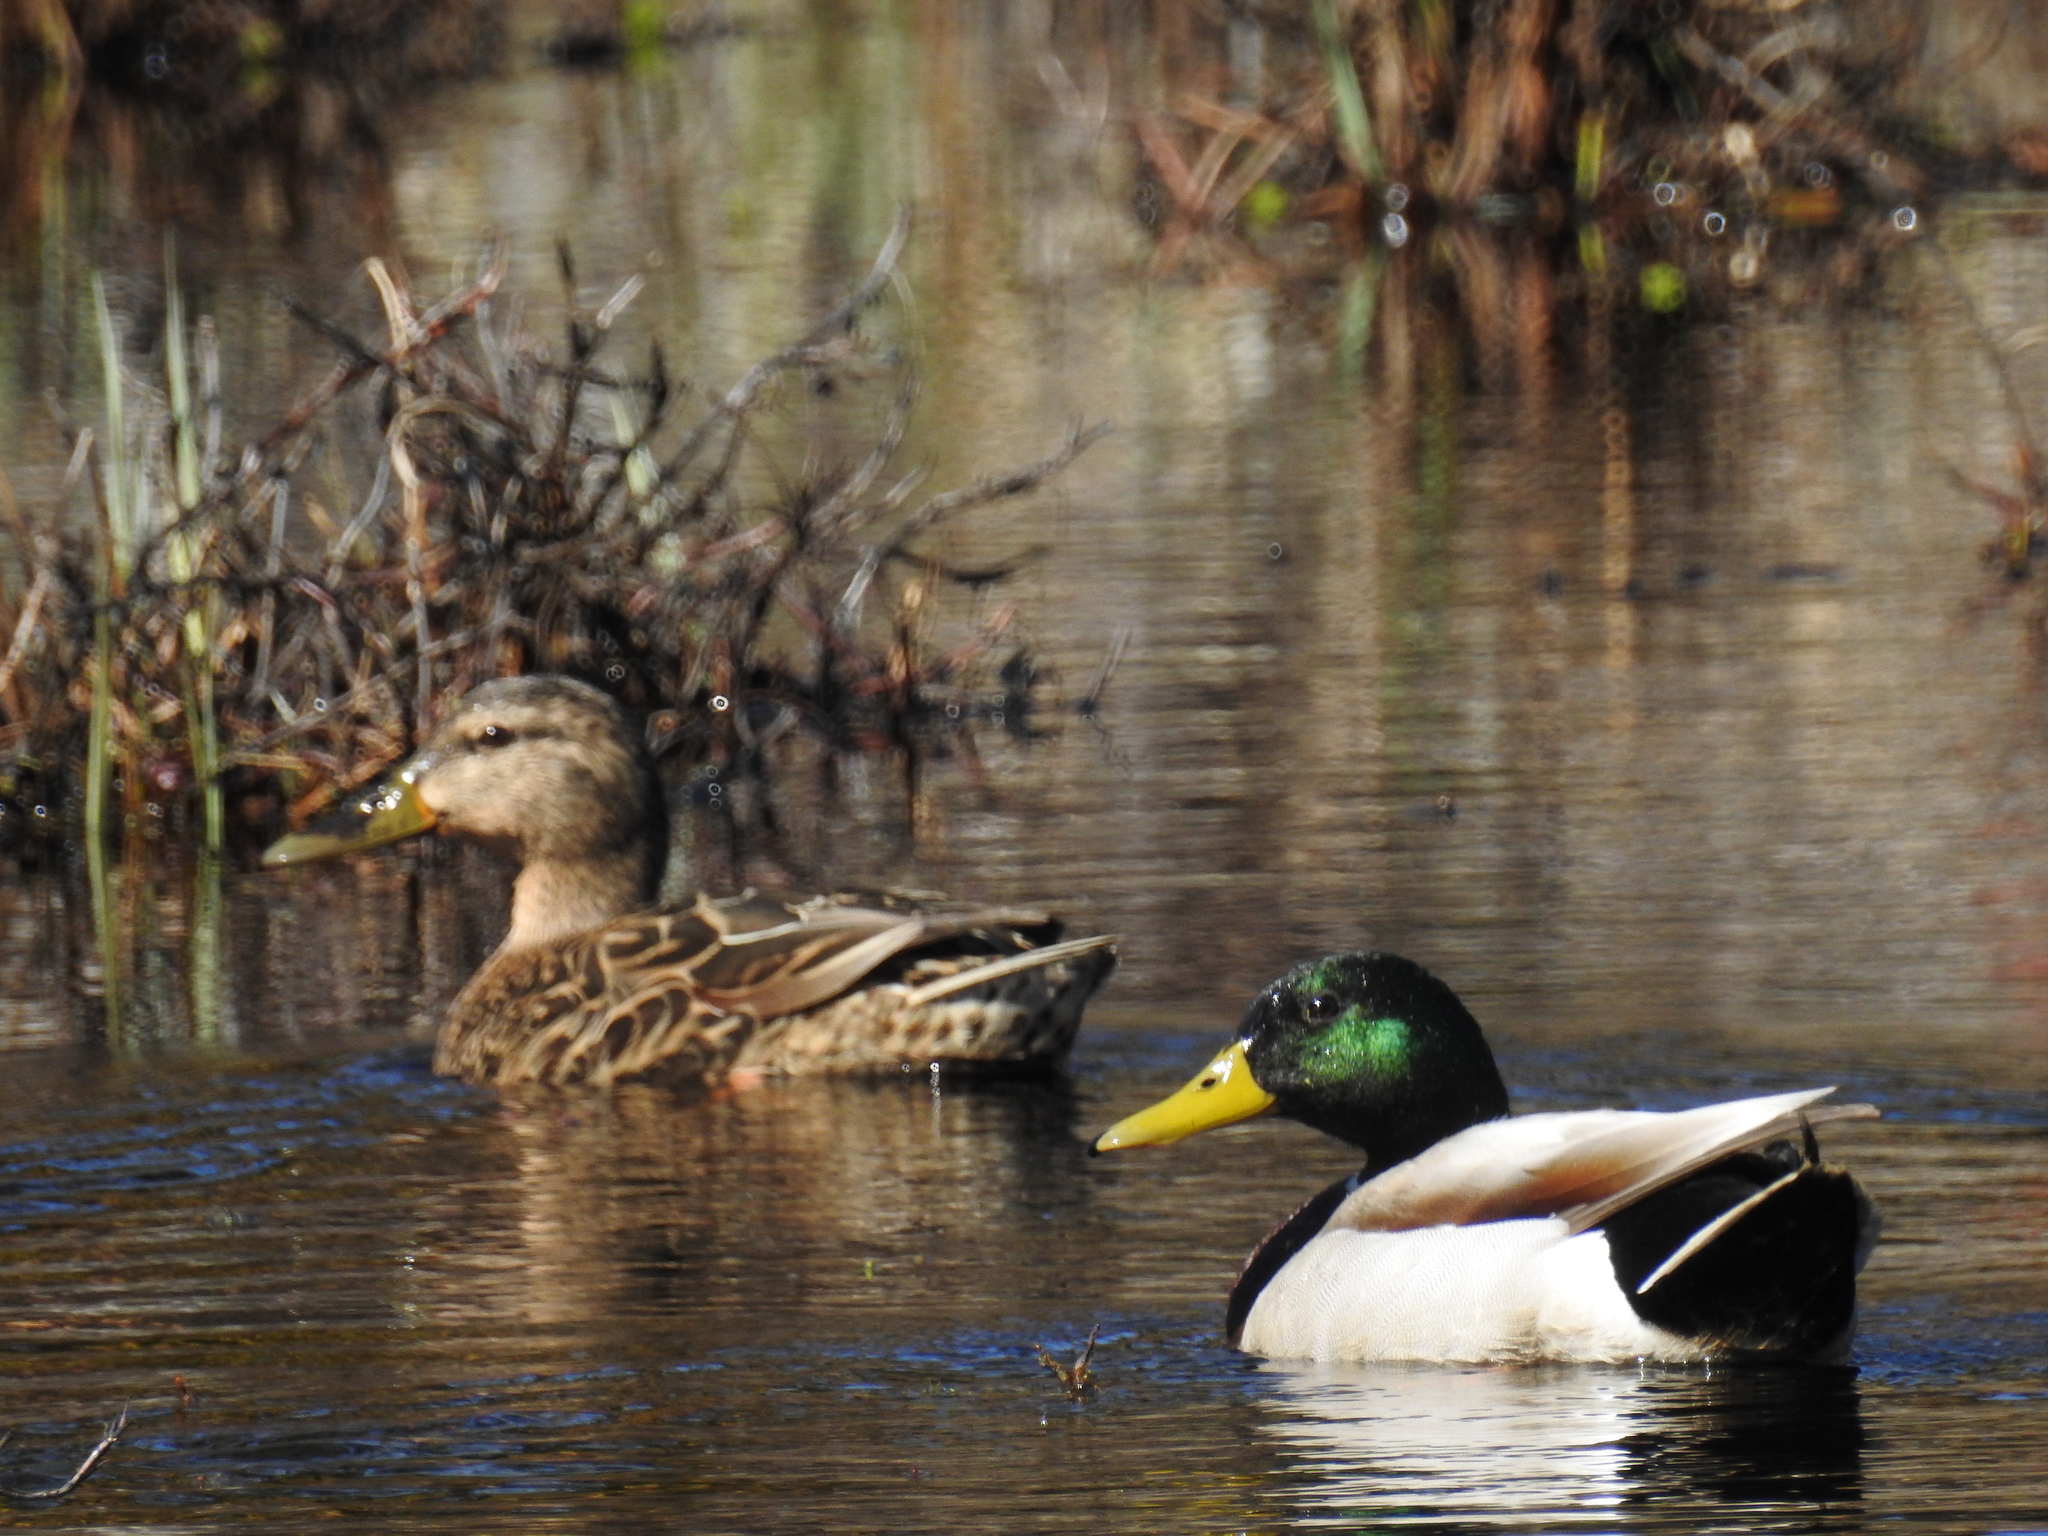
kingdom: Animalia
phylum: Chordata
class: Aves
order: Anseriformes
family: Anatidae
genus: Anas
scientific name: Anas platyrhynchos
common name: Mallard
